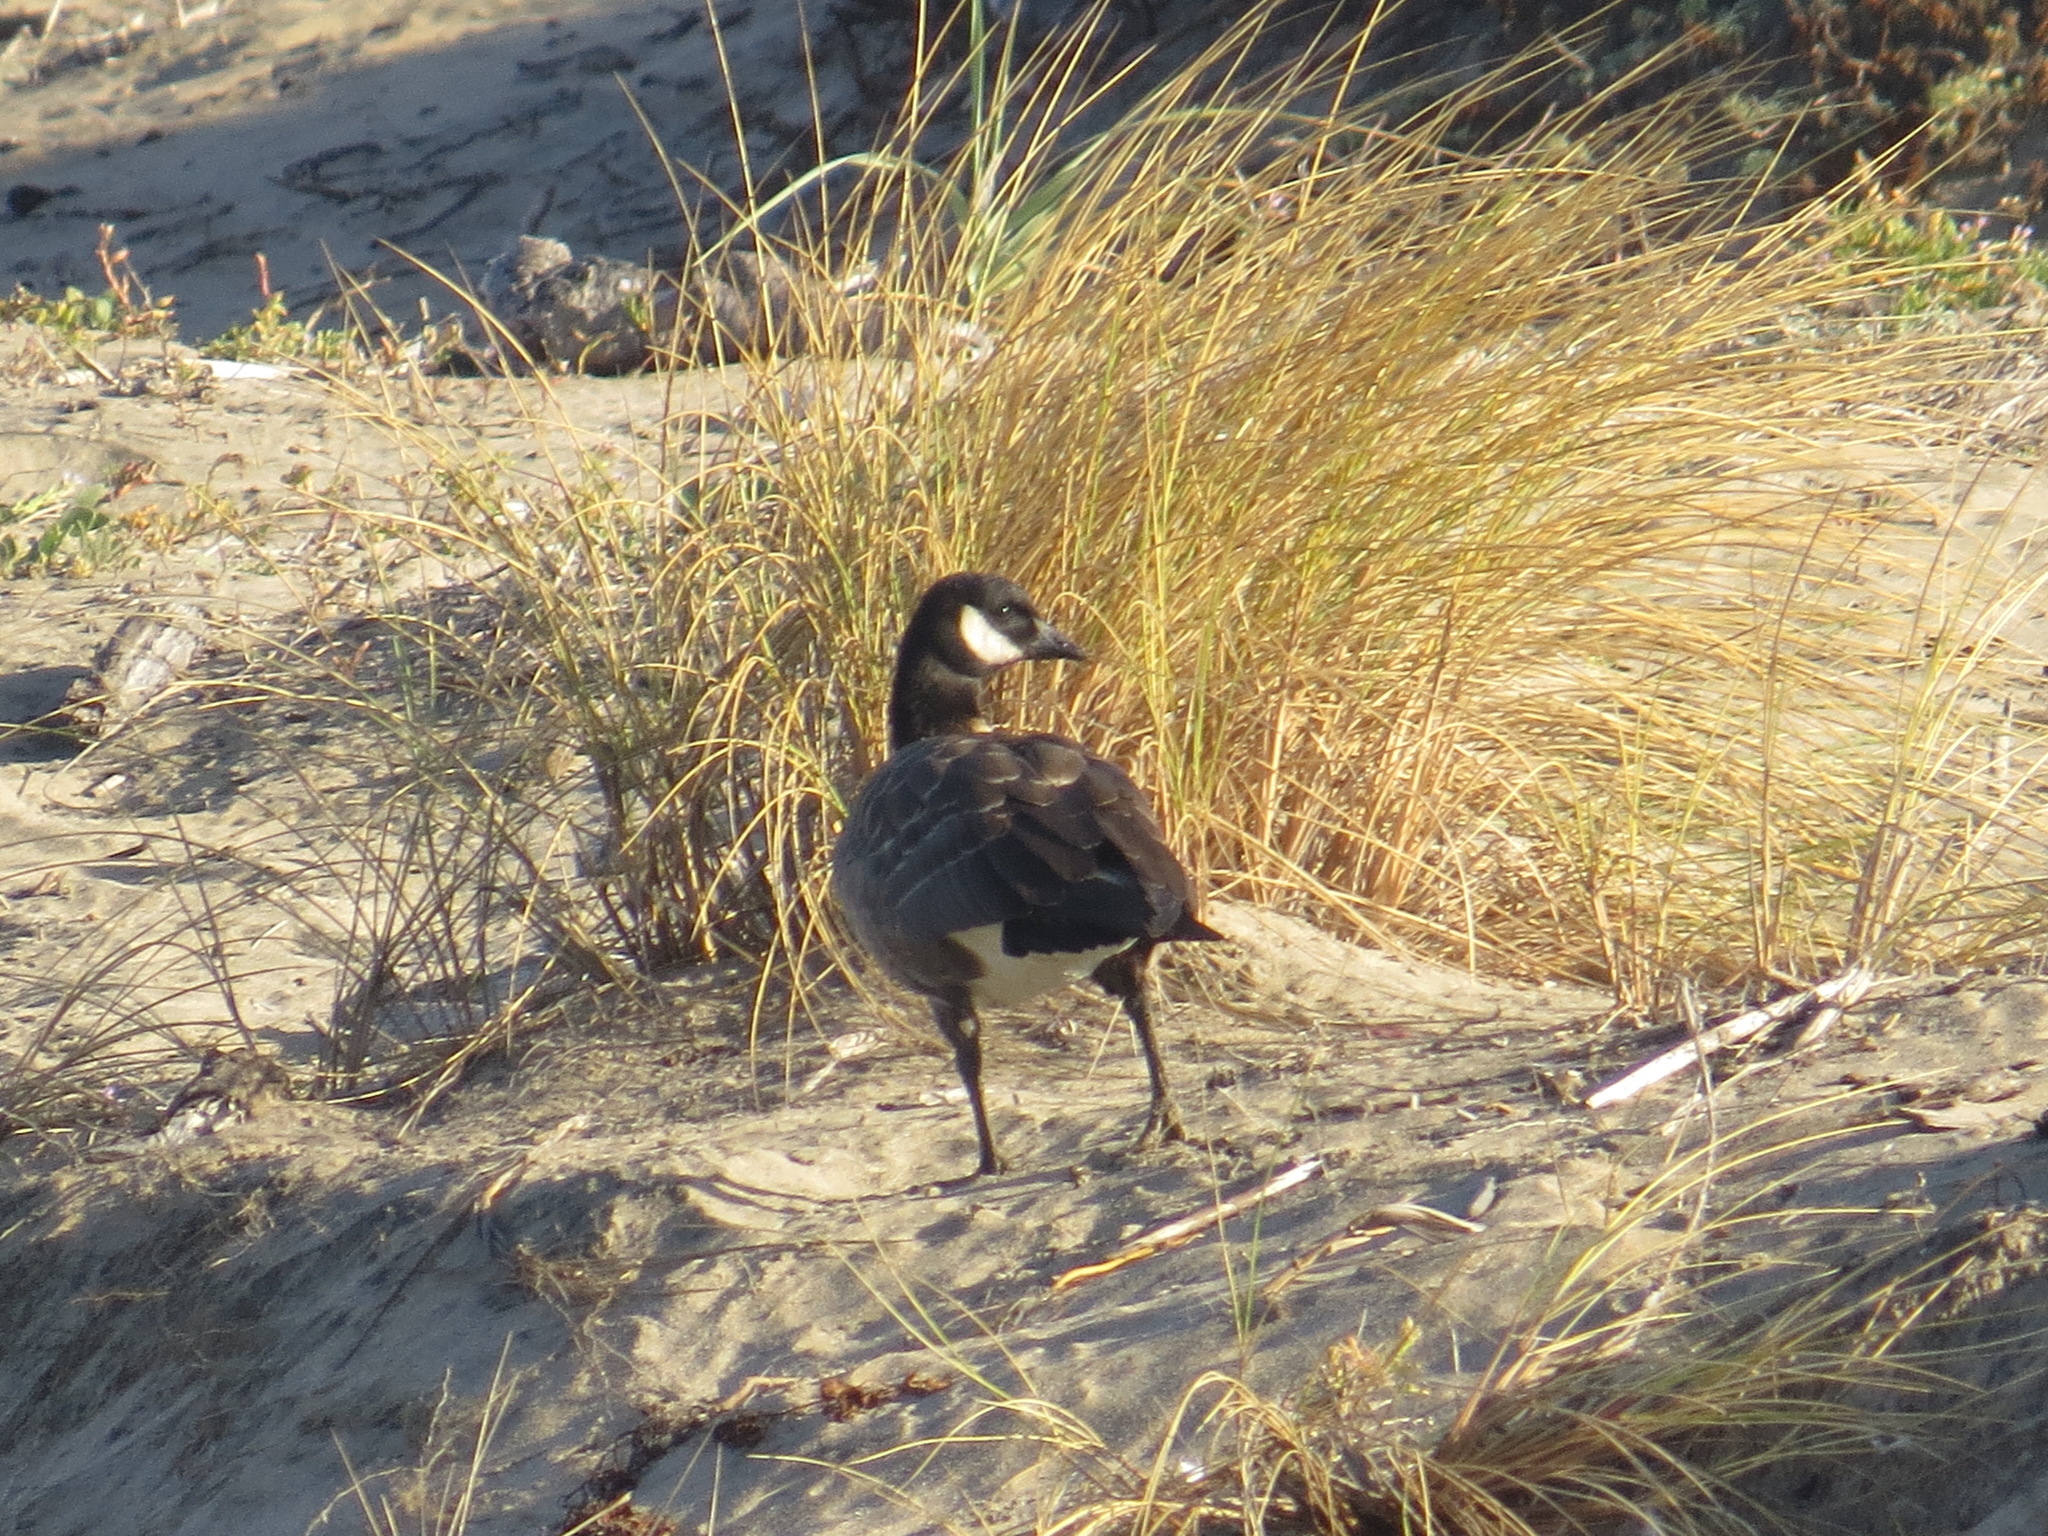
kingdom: Animalia
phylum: Chordata
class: Aves
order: Anseriformes
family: Anatidae
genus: Branta
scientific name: Branta hutchinsii
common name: Cackling goose
